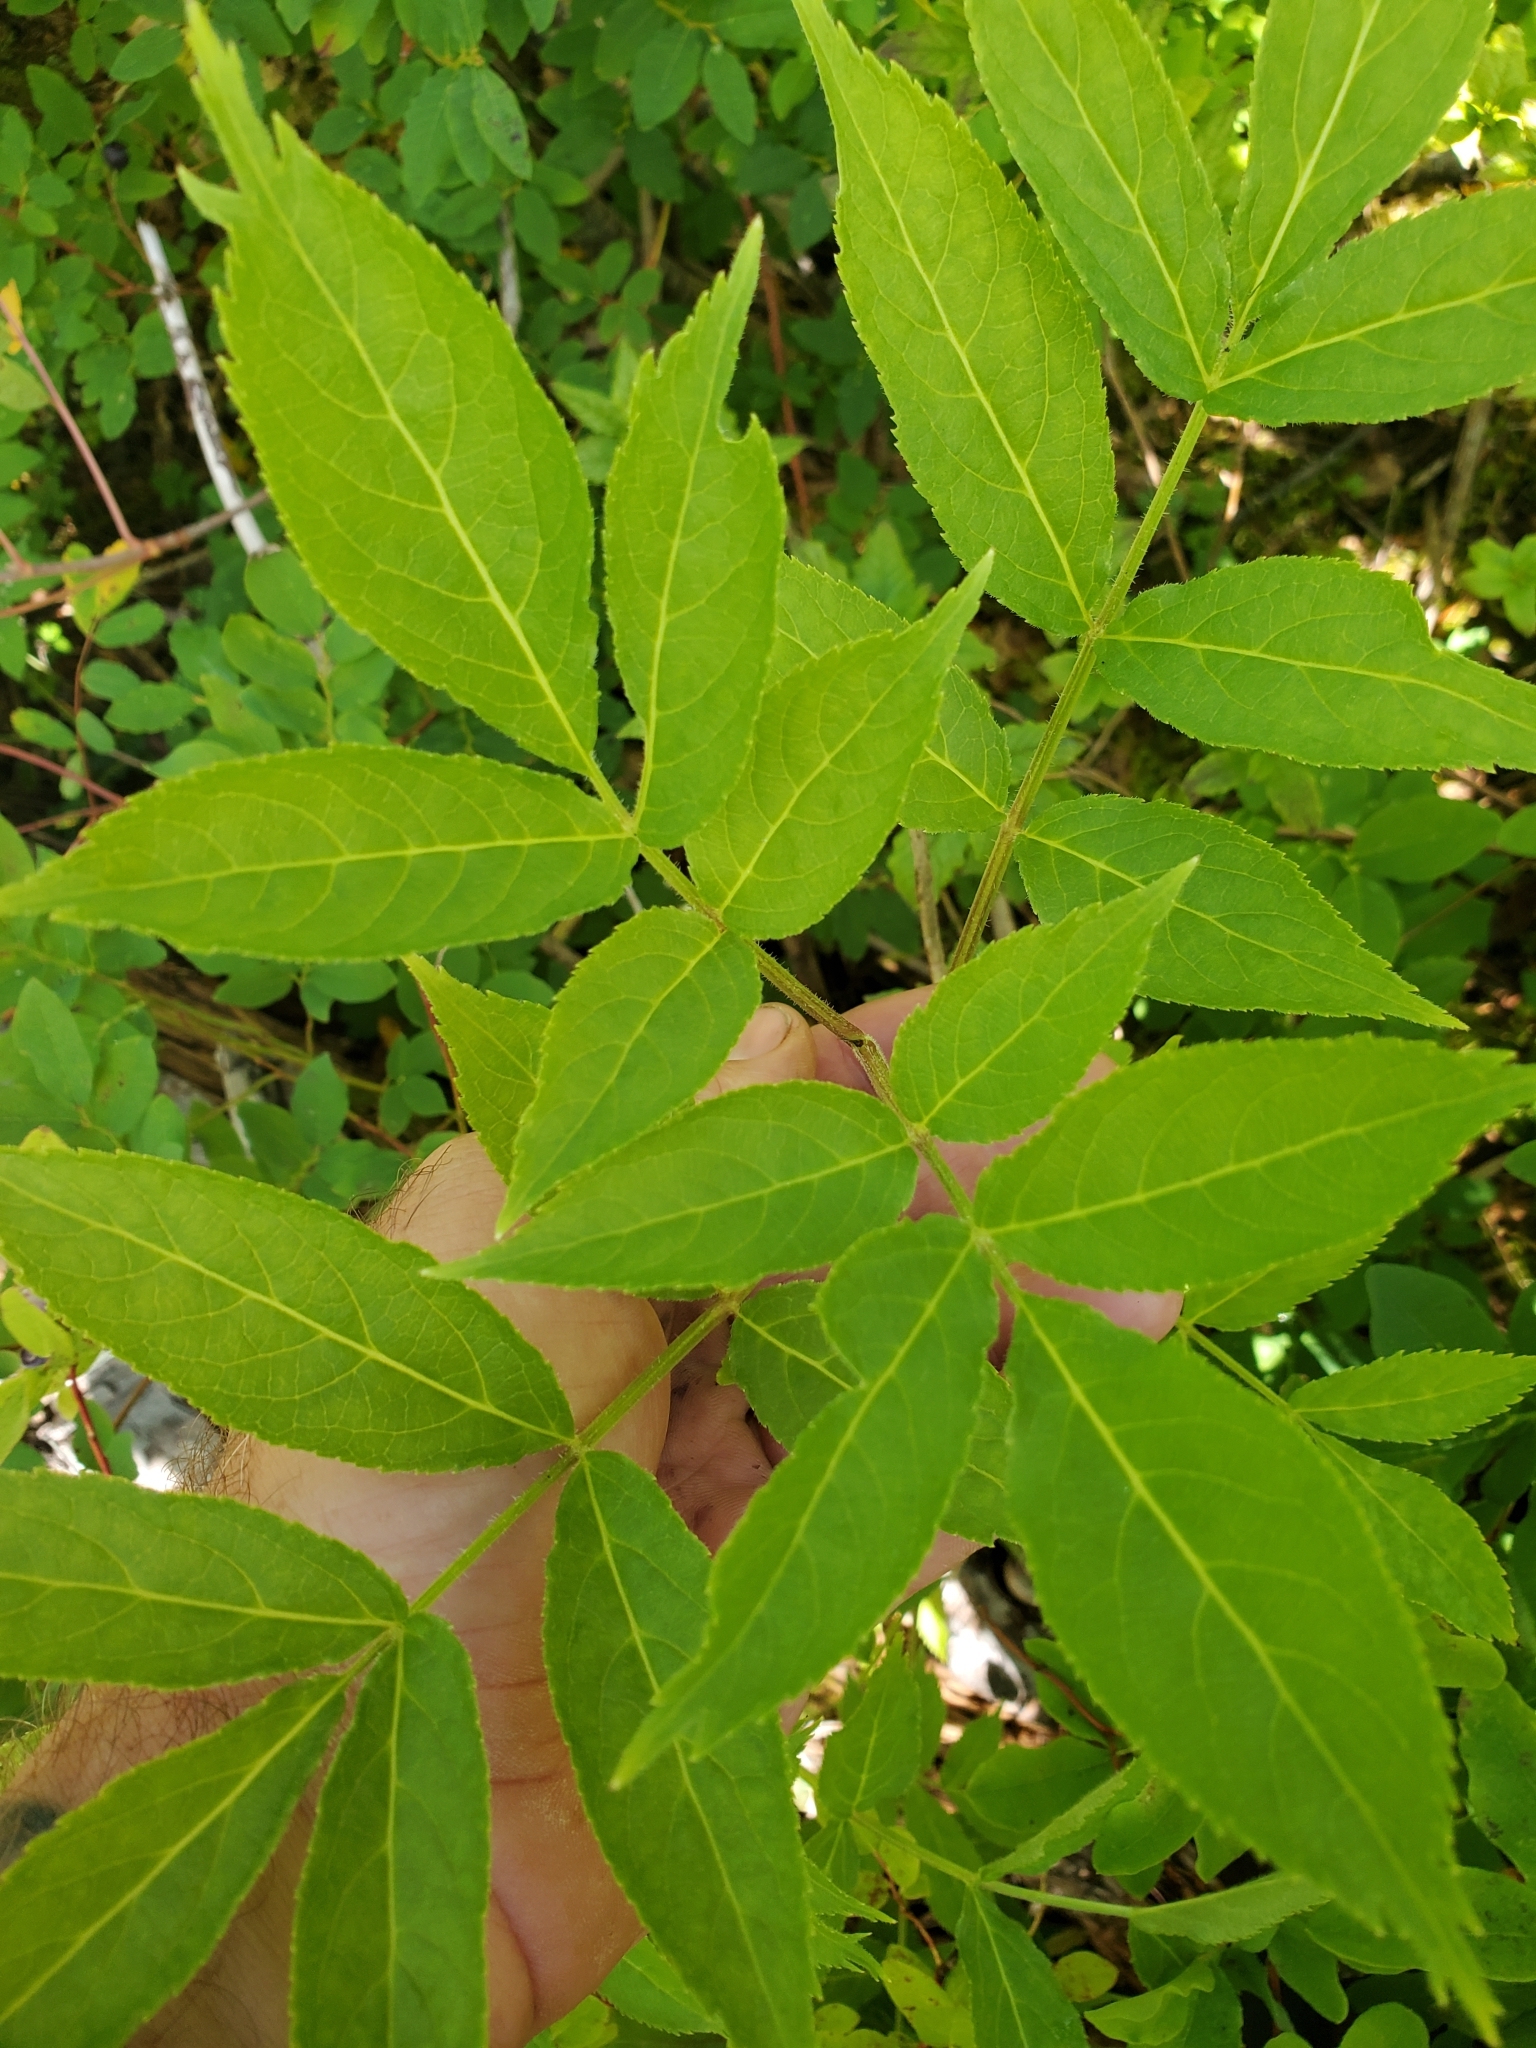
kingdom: Plantae
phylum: Tracheophyta
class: Magnoliopsida
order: Dipsacales
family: Viburnaceae
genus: Sambucus
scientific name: Sambucus racemosa
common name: Red-berried elder
